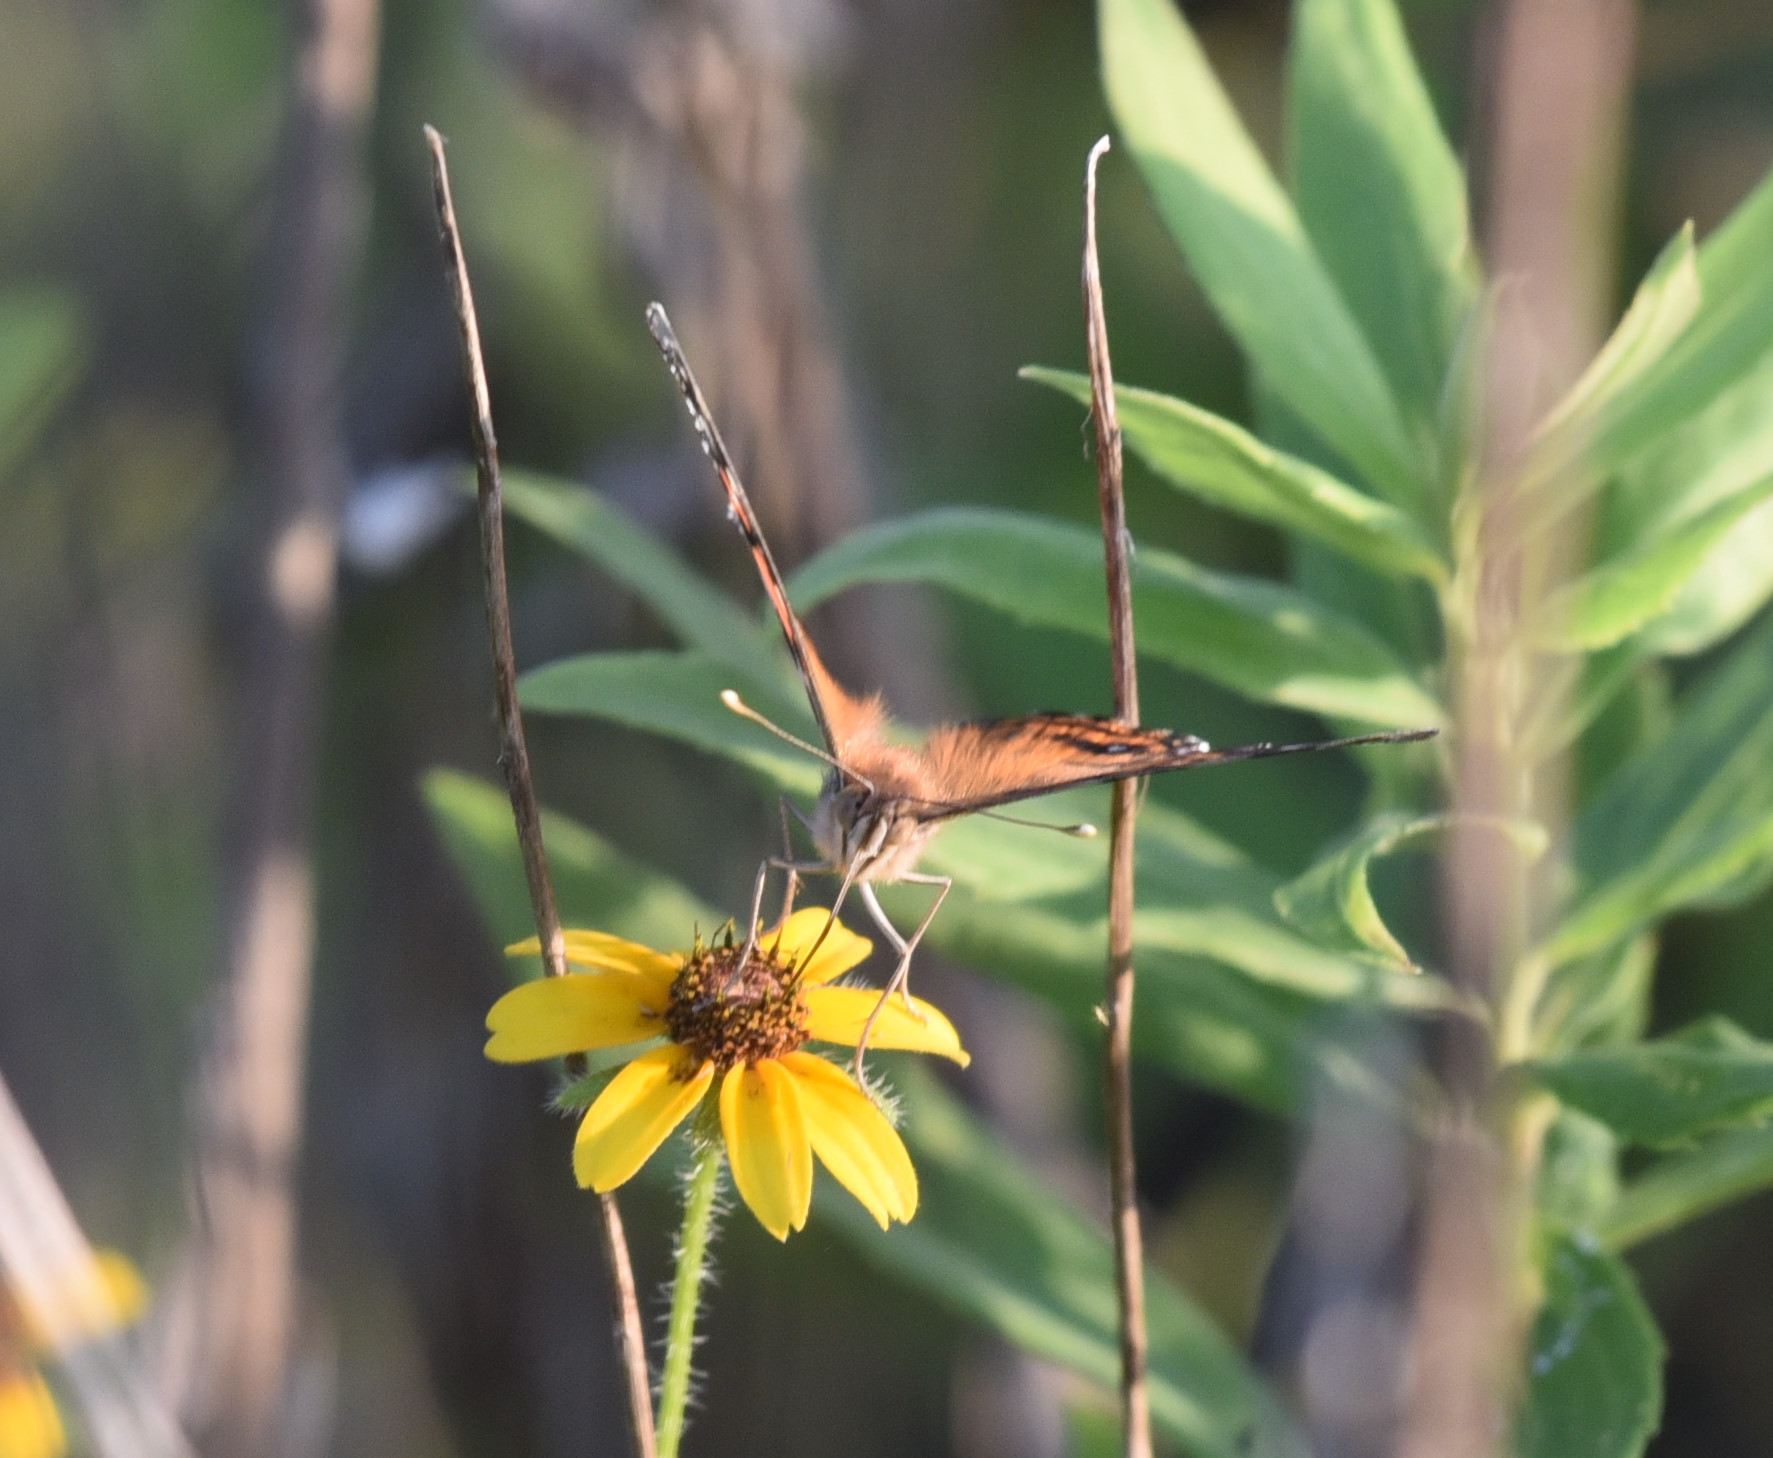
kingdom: Animalia
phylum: Arthropoda
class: Insecta
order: Lepidoptera
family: Nymphalidae
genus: Vanessa
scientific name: Vanessa virginiensis
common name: American lady
